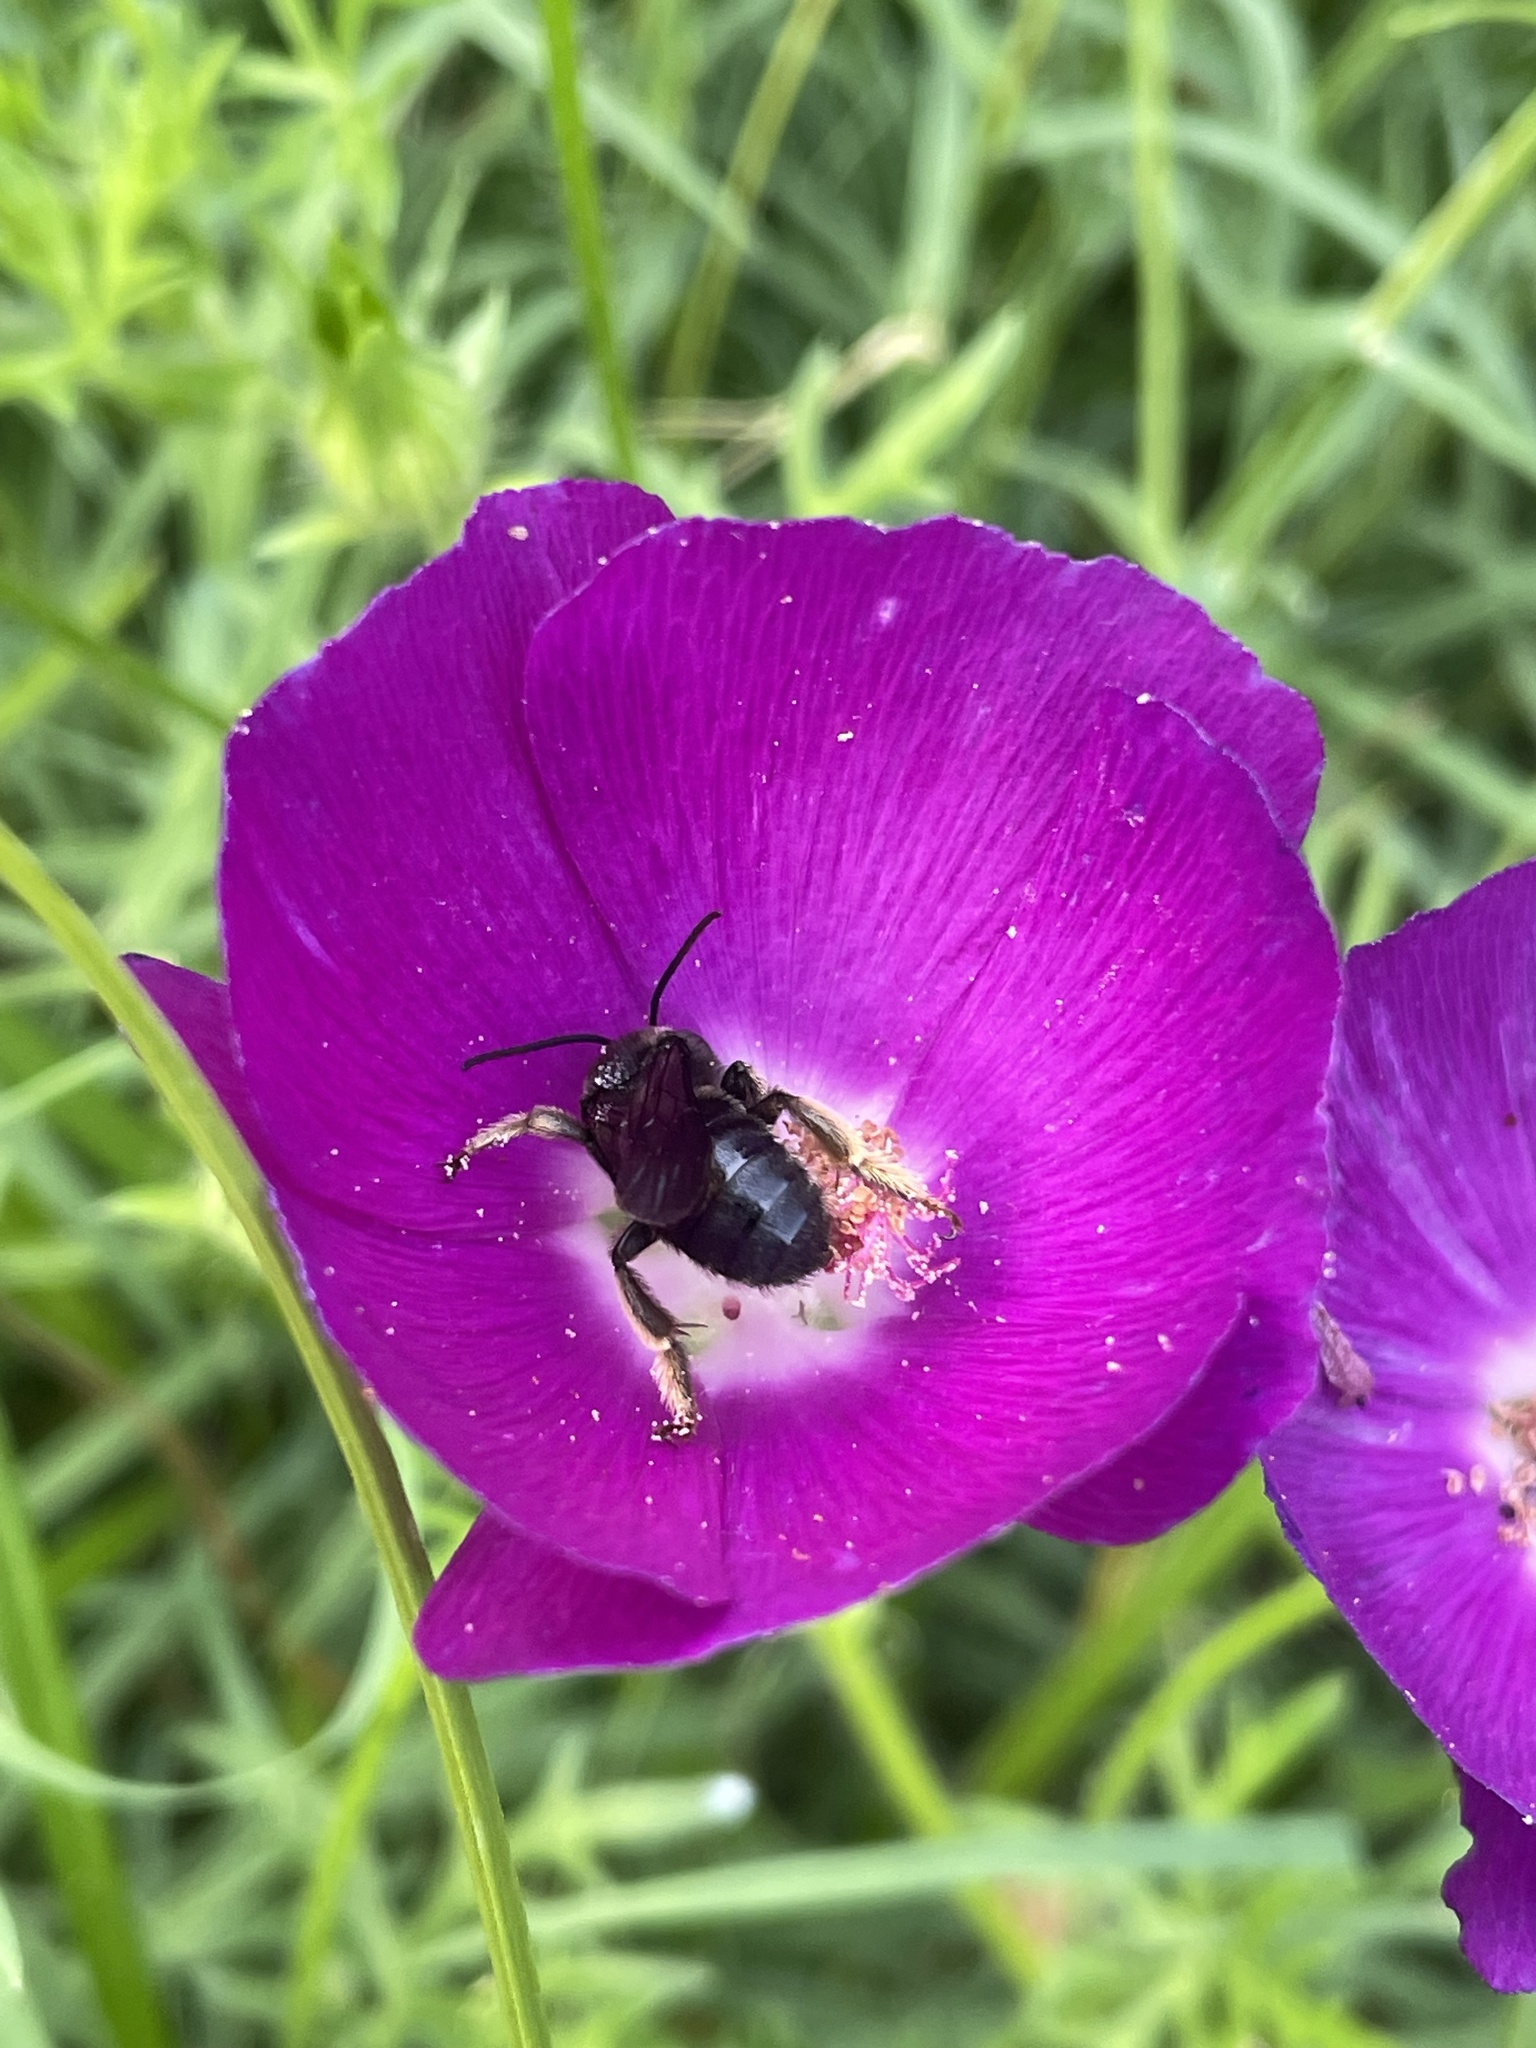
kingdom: Animalia
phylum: Arthropoda
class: Insecta
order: Hymenoptera
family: Apidae
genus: Melissodes
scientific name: Melissodes bimaculatus
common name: Two-spotted long-horned bee
